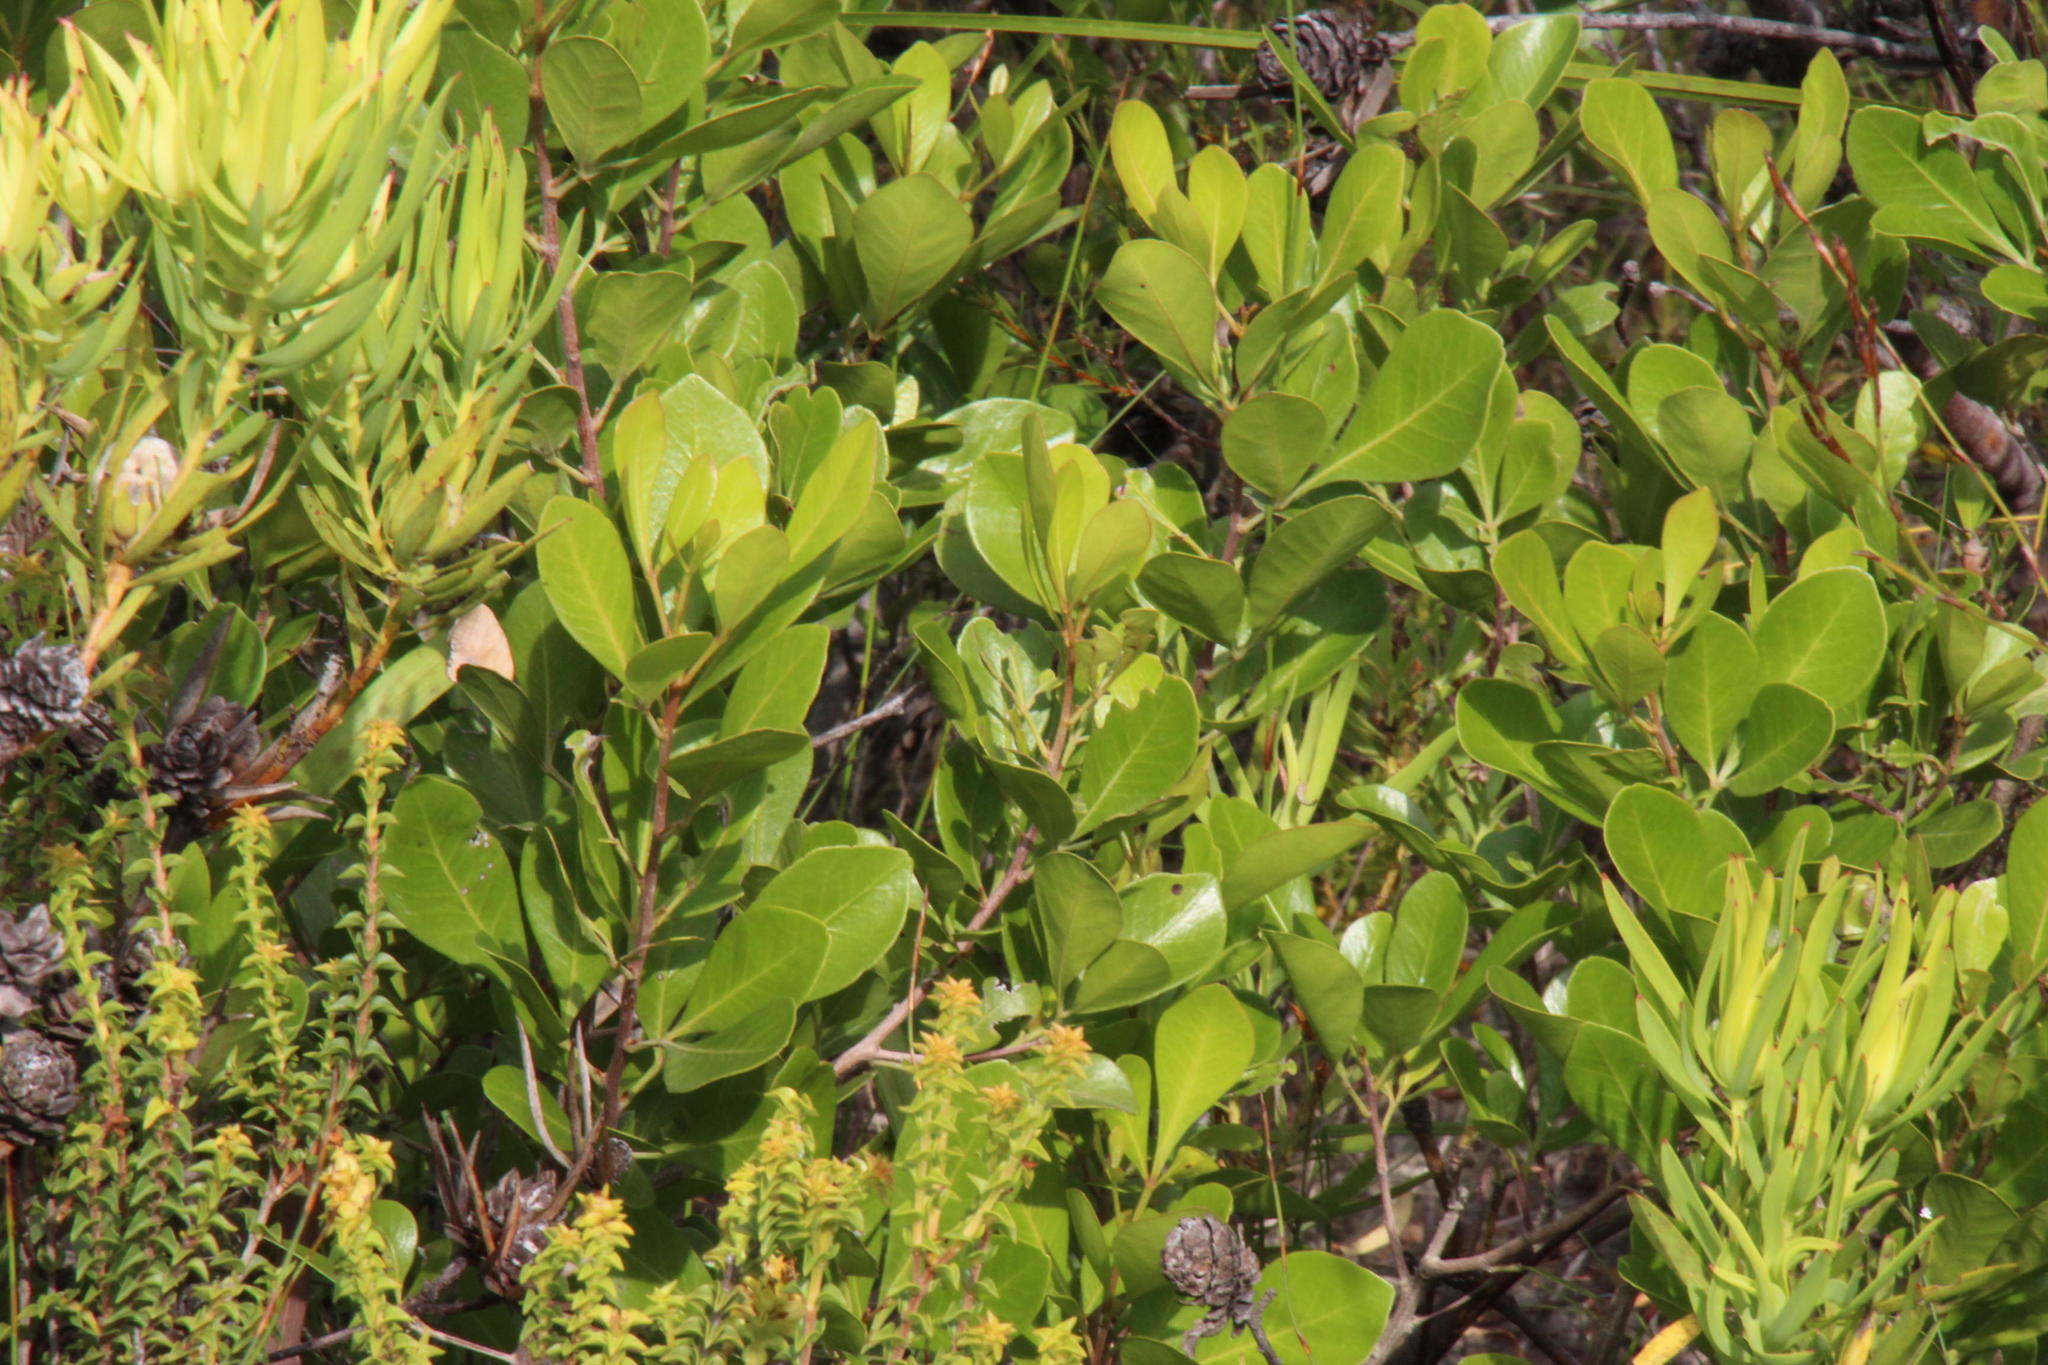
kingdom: Plantae
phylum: Tracheophyta
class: Magnoliopsida
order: Sapindales
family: Anacardiaceae
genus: Searsia
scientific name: Searsia lucida
